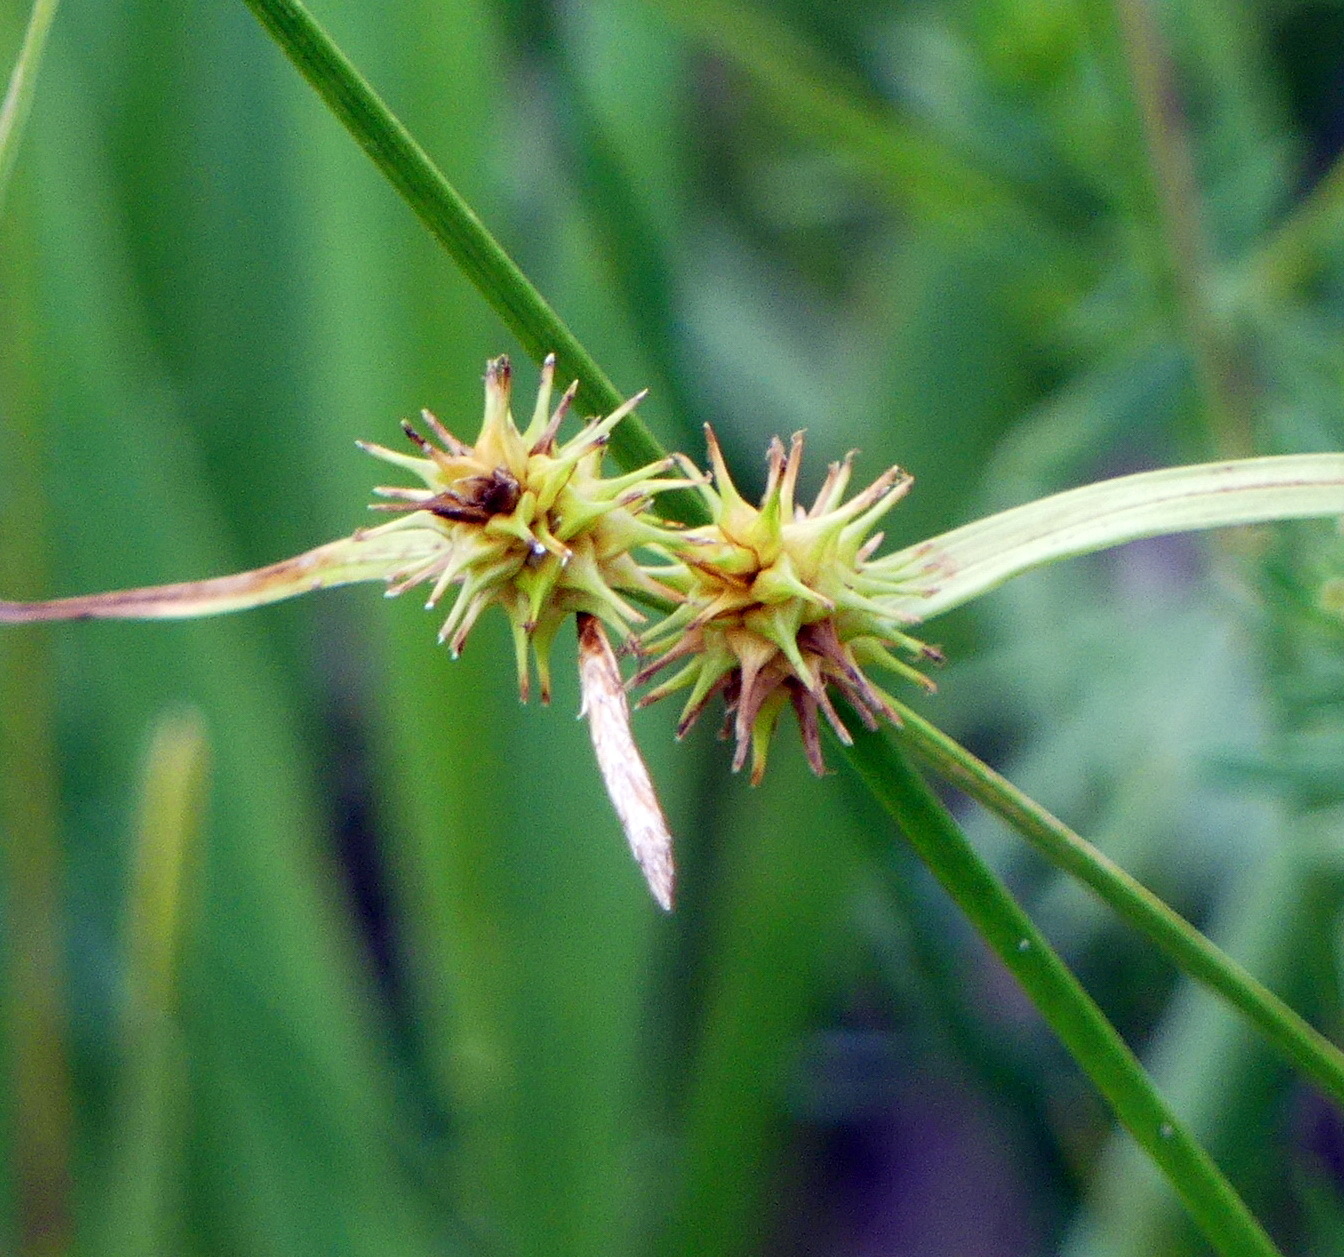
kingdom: Plantae
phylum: Tracheophyta
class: Liliopsida
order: Poales
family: Cyperaceae
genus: Carex
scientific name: Carex flava
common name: Large yellow-sedge
